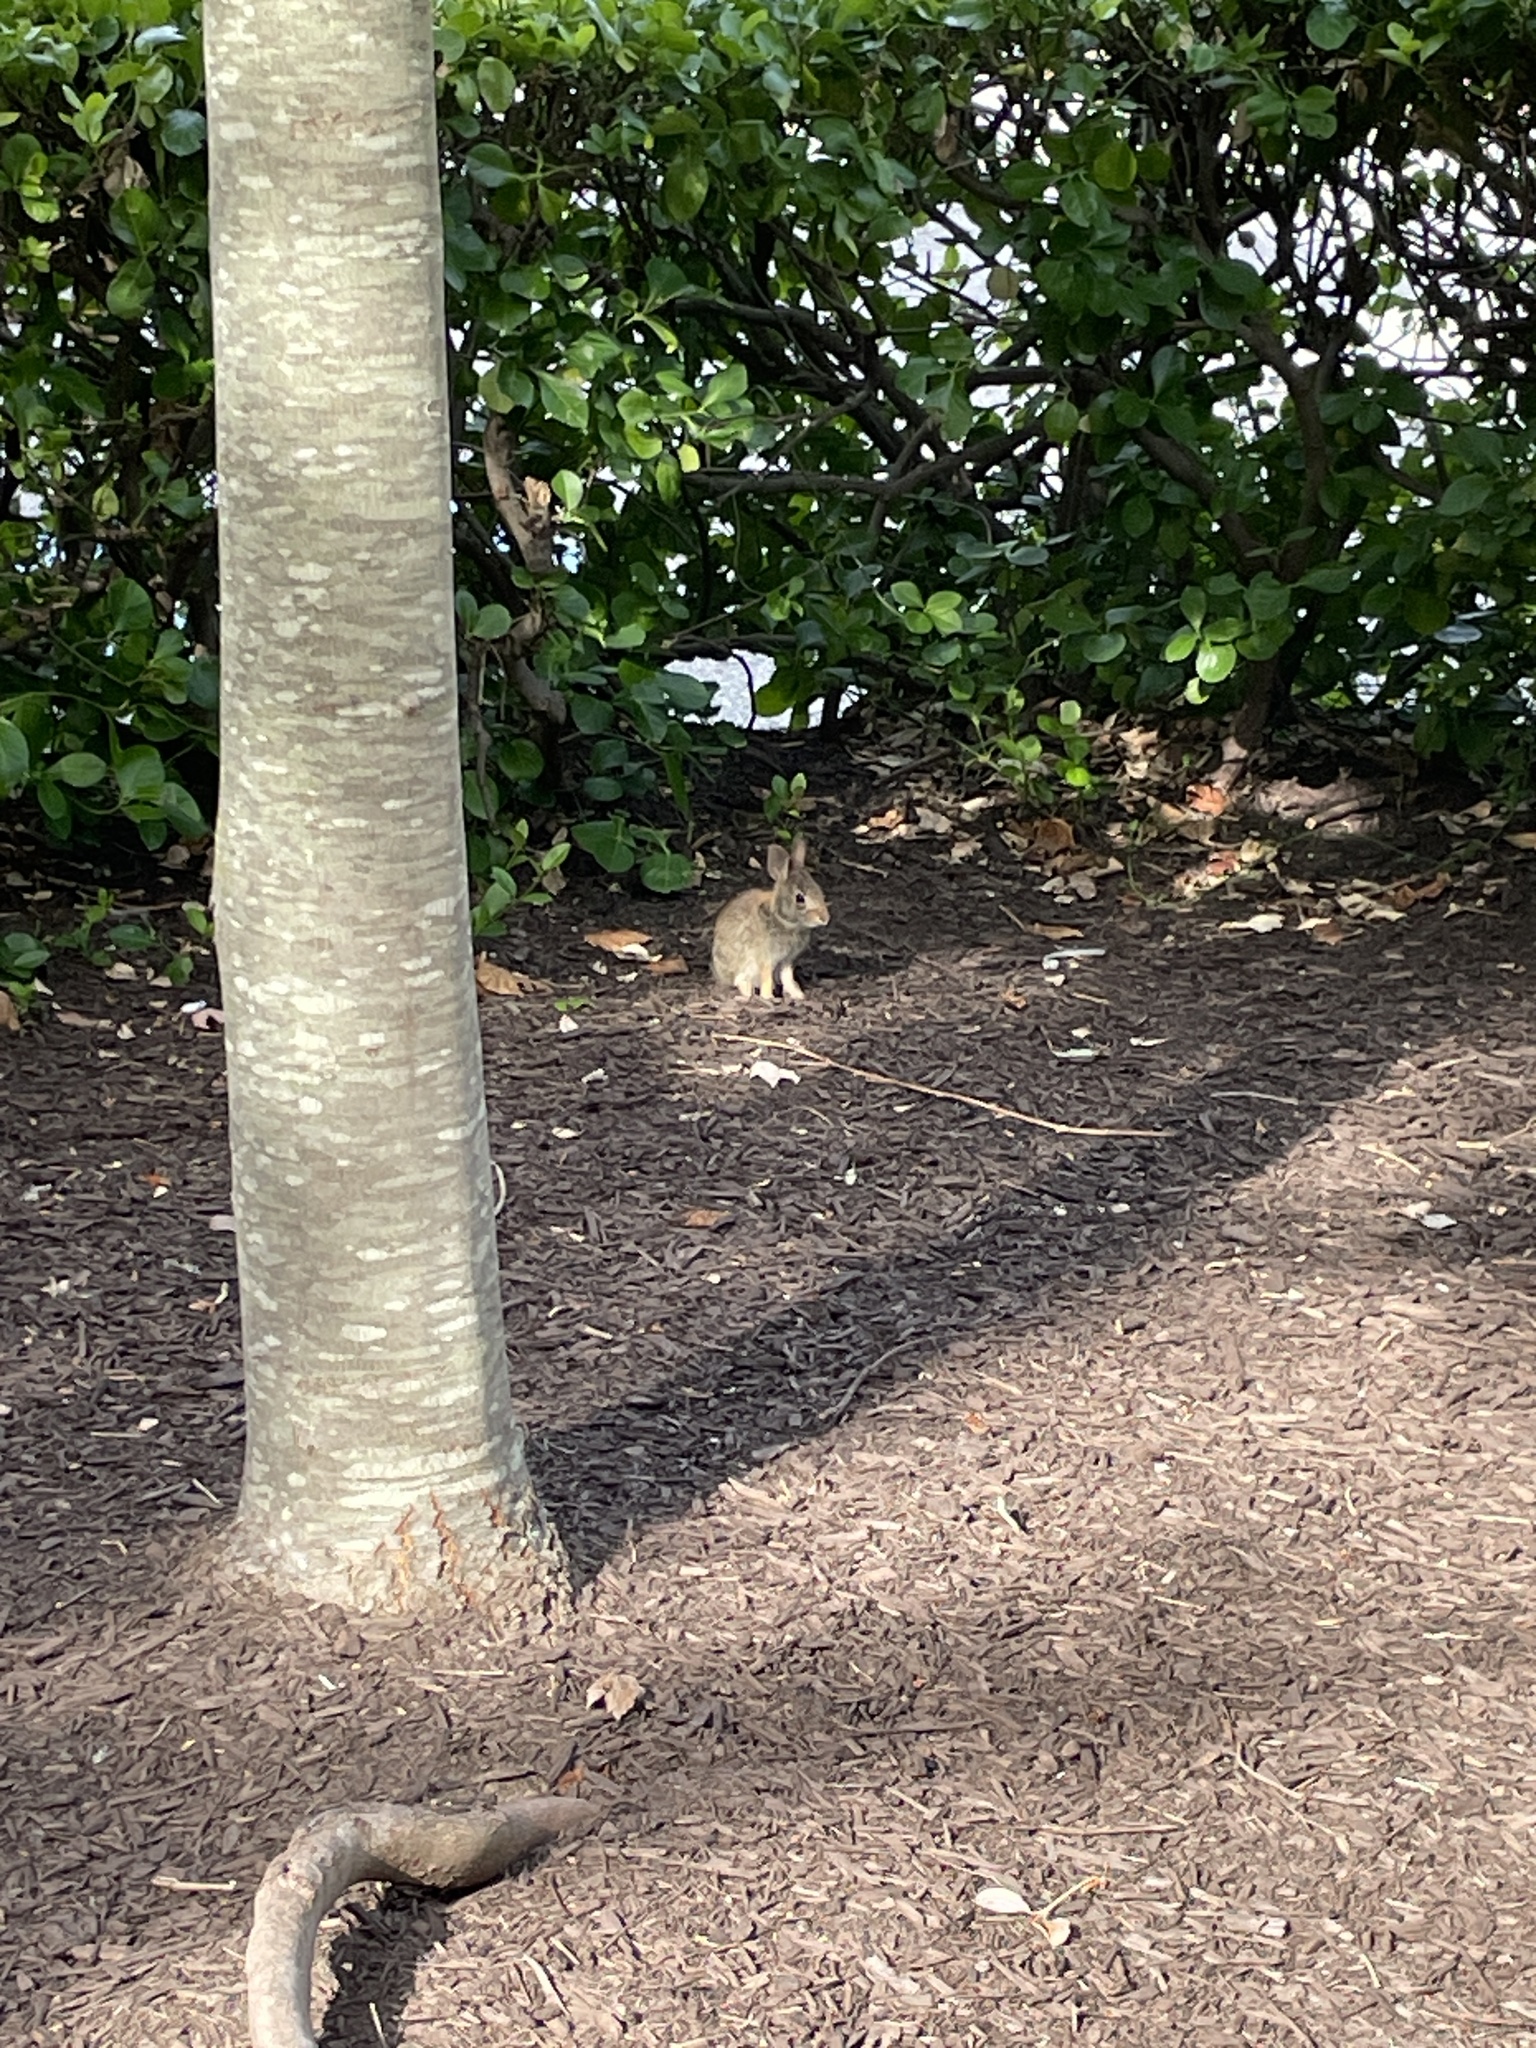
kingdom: Animalia
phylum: Chordata
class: Mammalia
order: Lagomorpha
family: Leporidae
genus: Sylvilagus
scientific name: Sylvilagus floridanus
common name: Eastern cottontail
